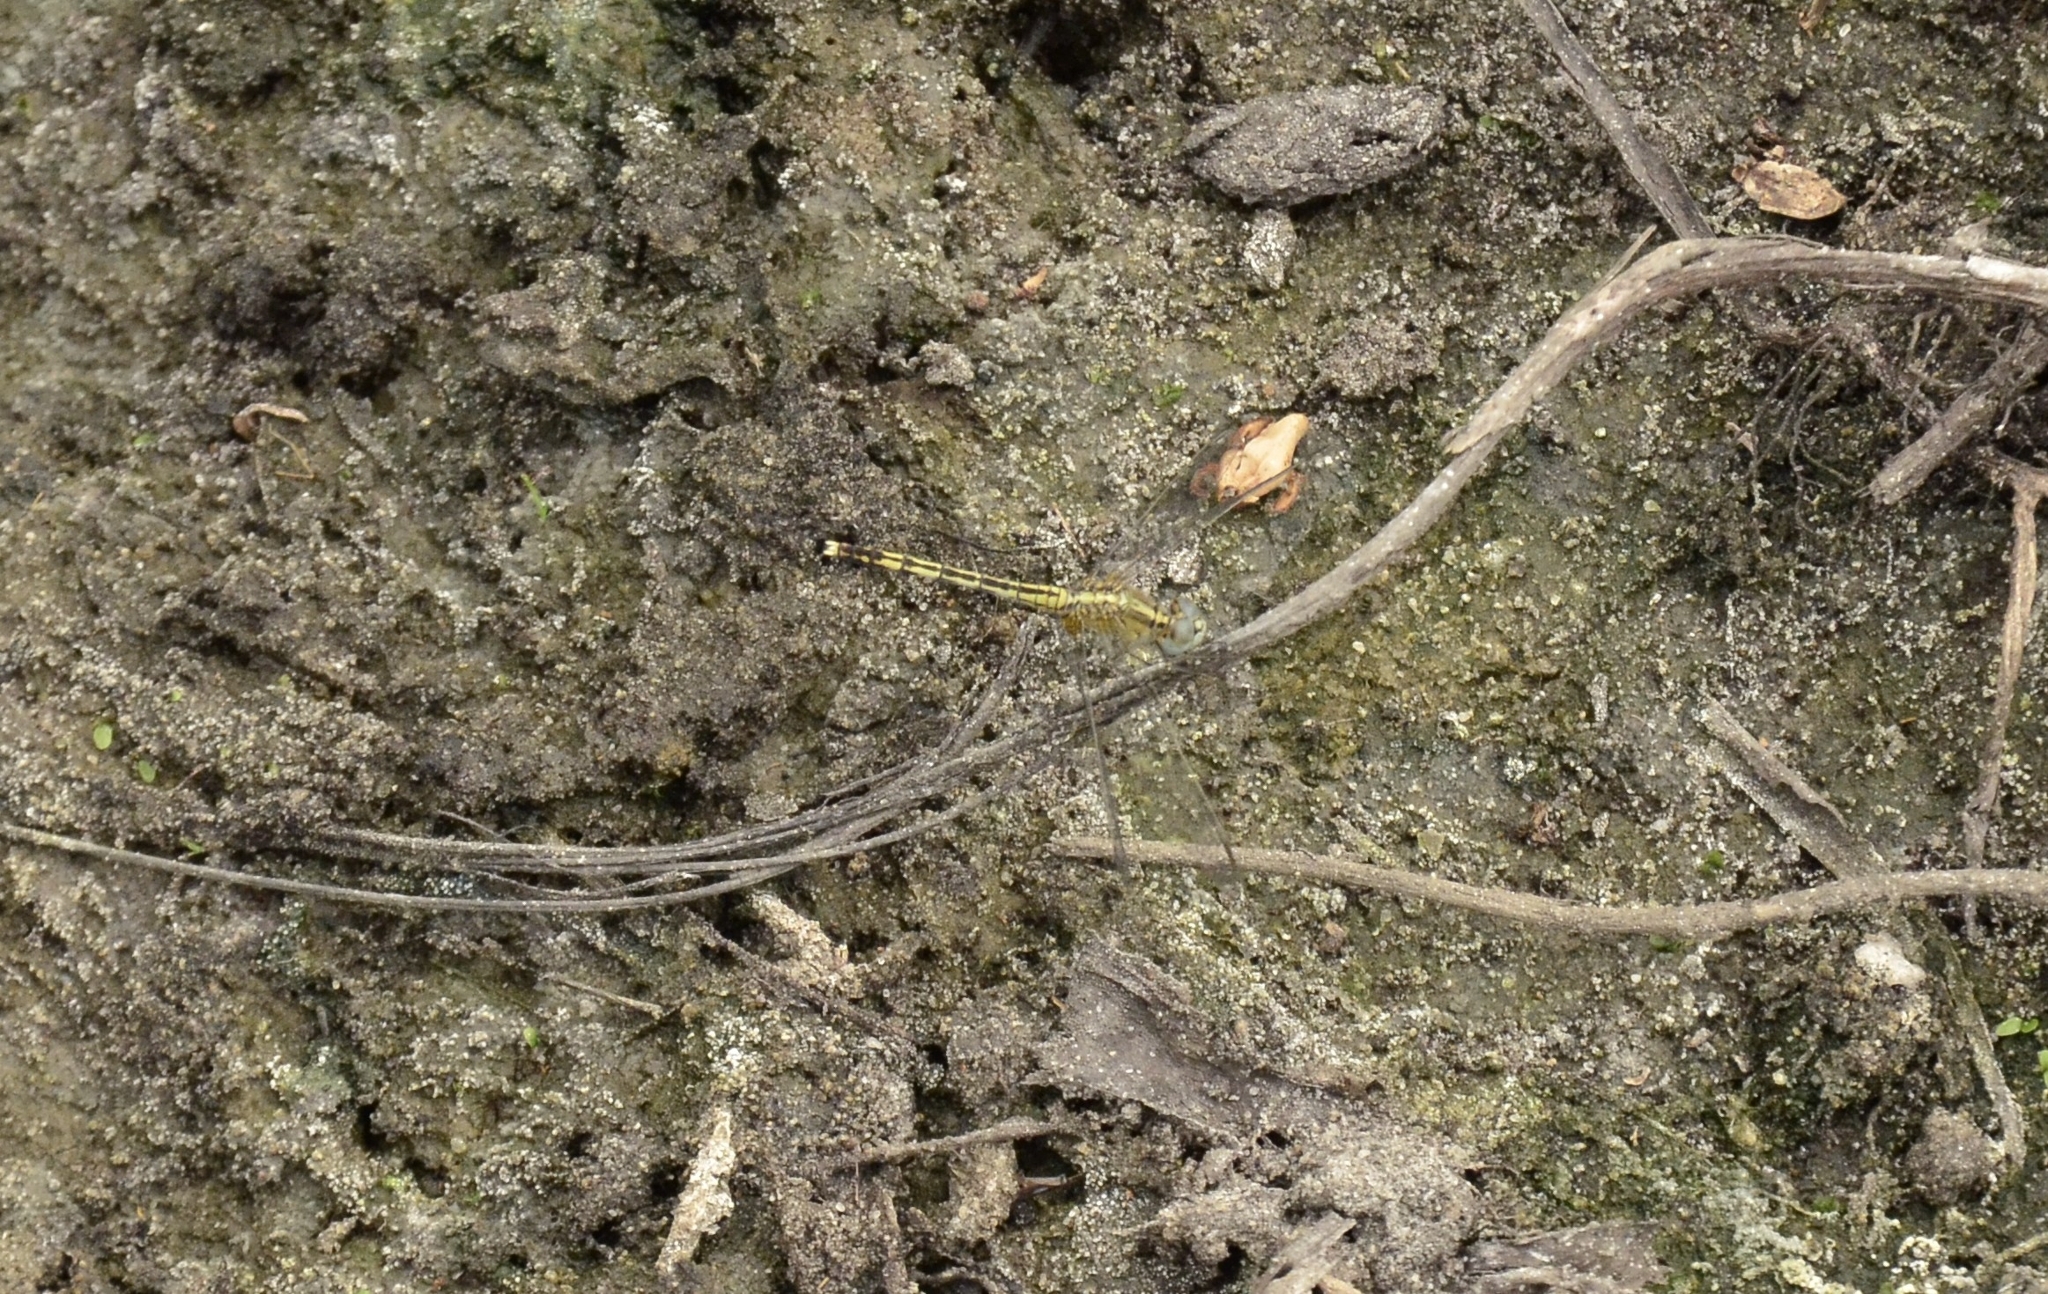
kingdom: Animalia
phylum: Arthropoda
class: Insecta
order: Odonata
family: Libellulidae
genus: Diplacodes
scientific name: Diplacodes trivialis
